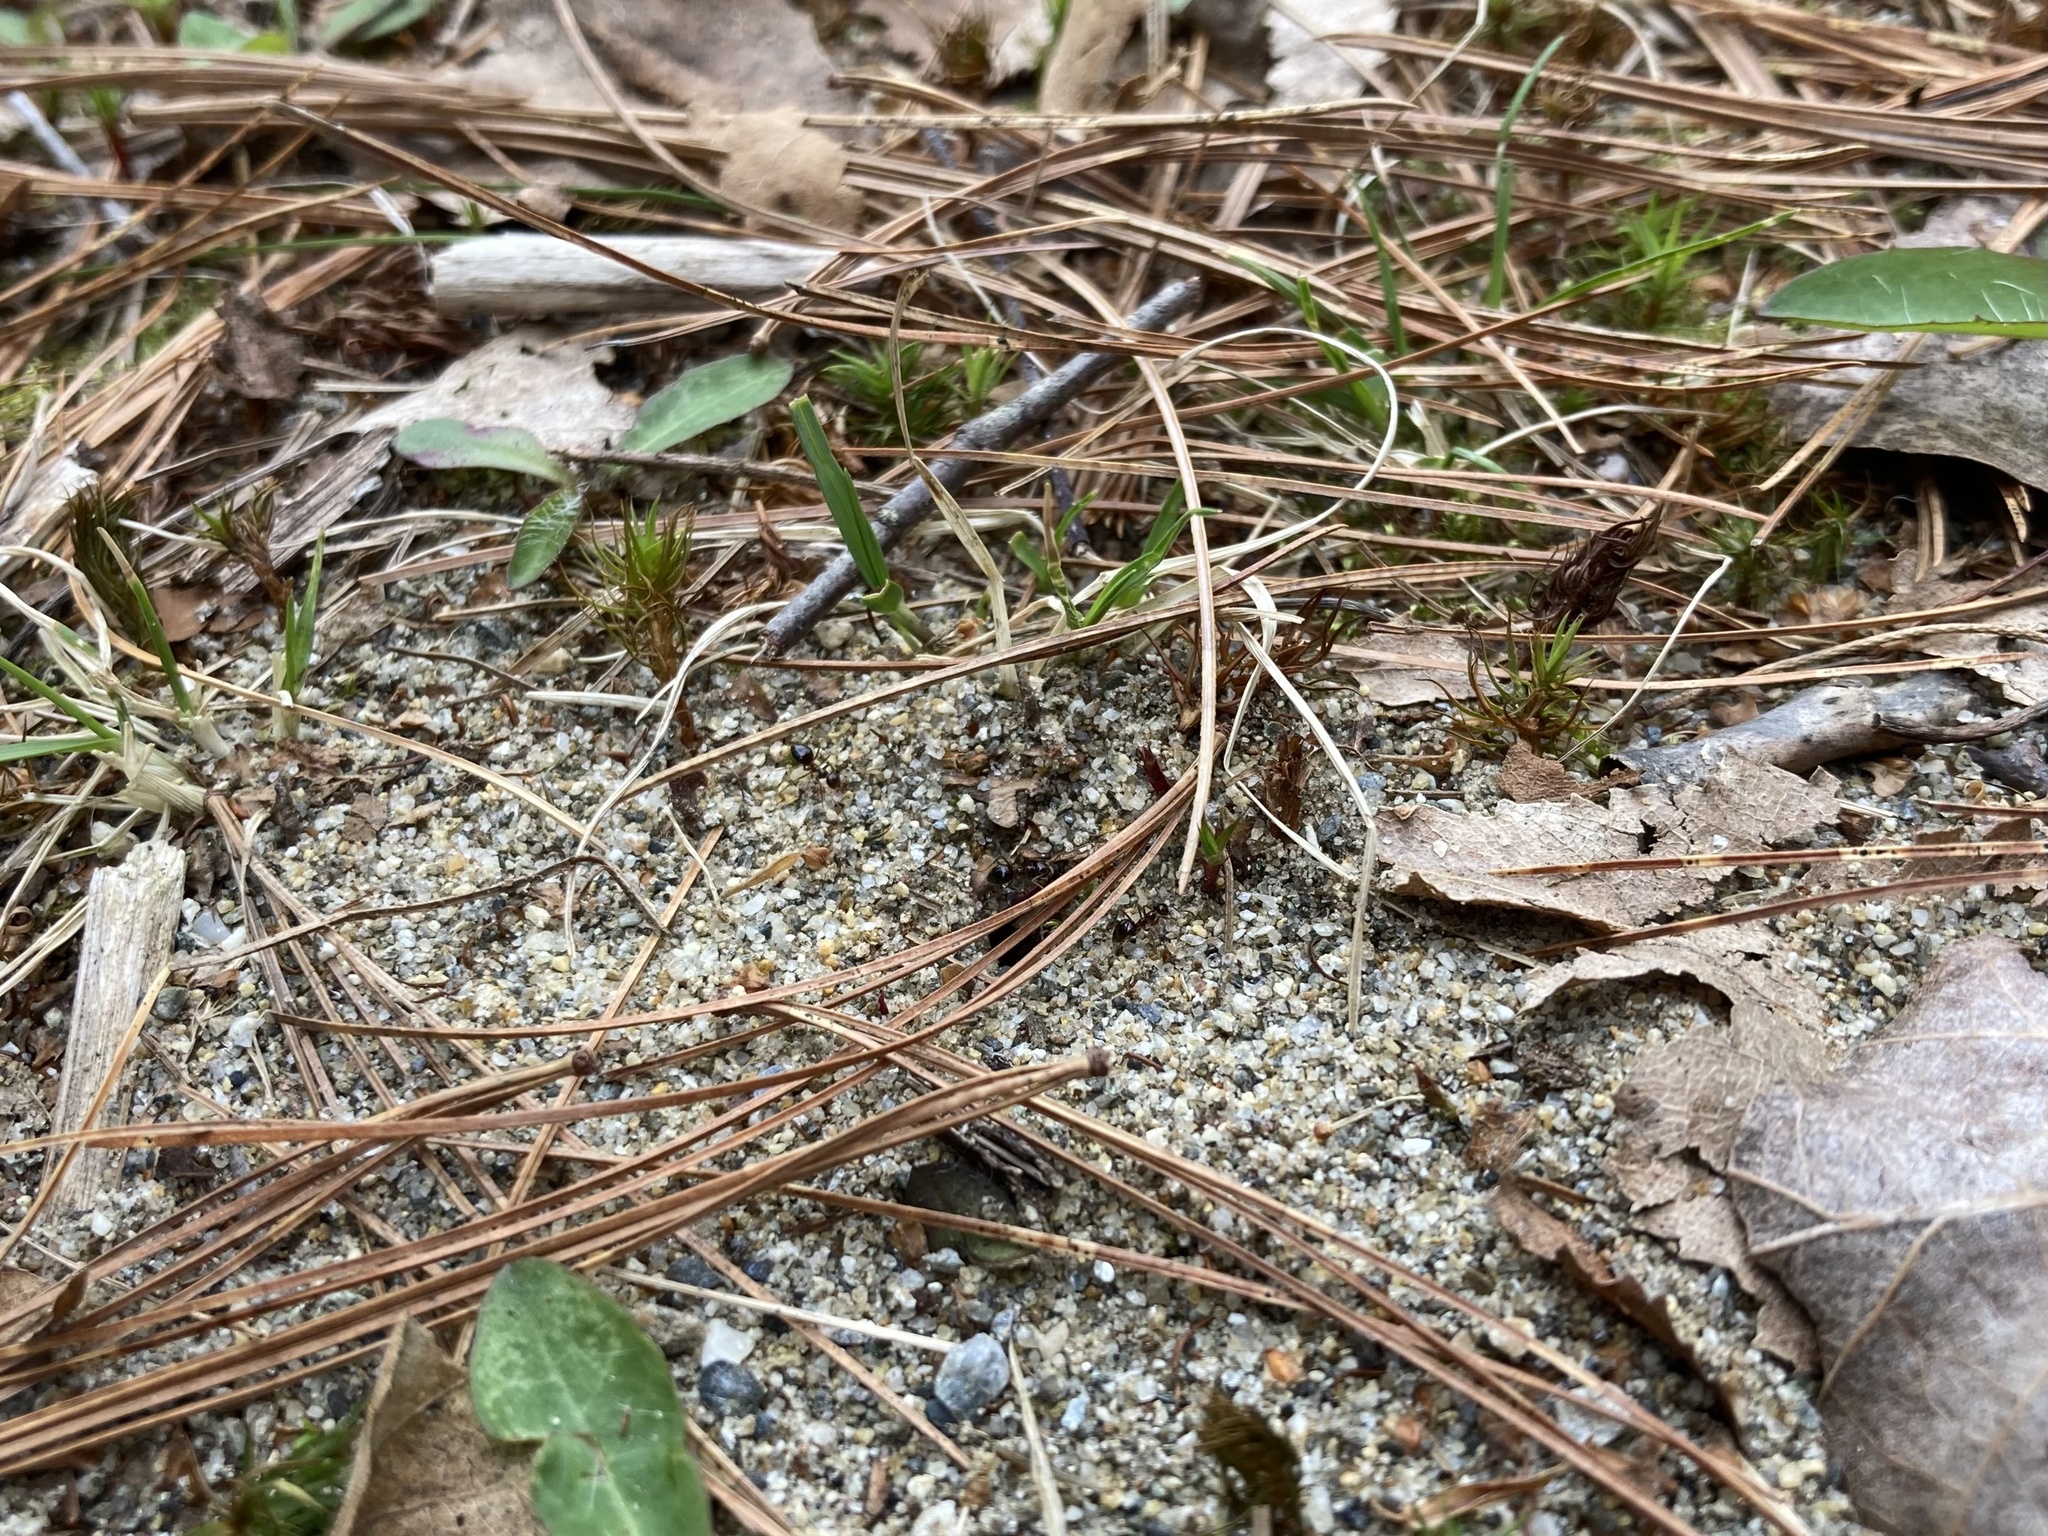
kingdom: Animalia
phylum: Arthropoda
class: Insecta
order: Hymenoptera
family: Formicidae
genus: Prenolepis
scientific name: Prenolepis imparis
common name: Small honey ant
